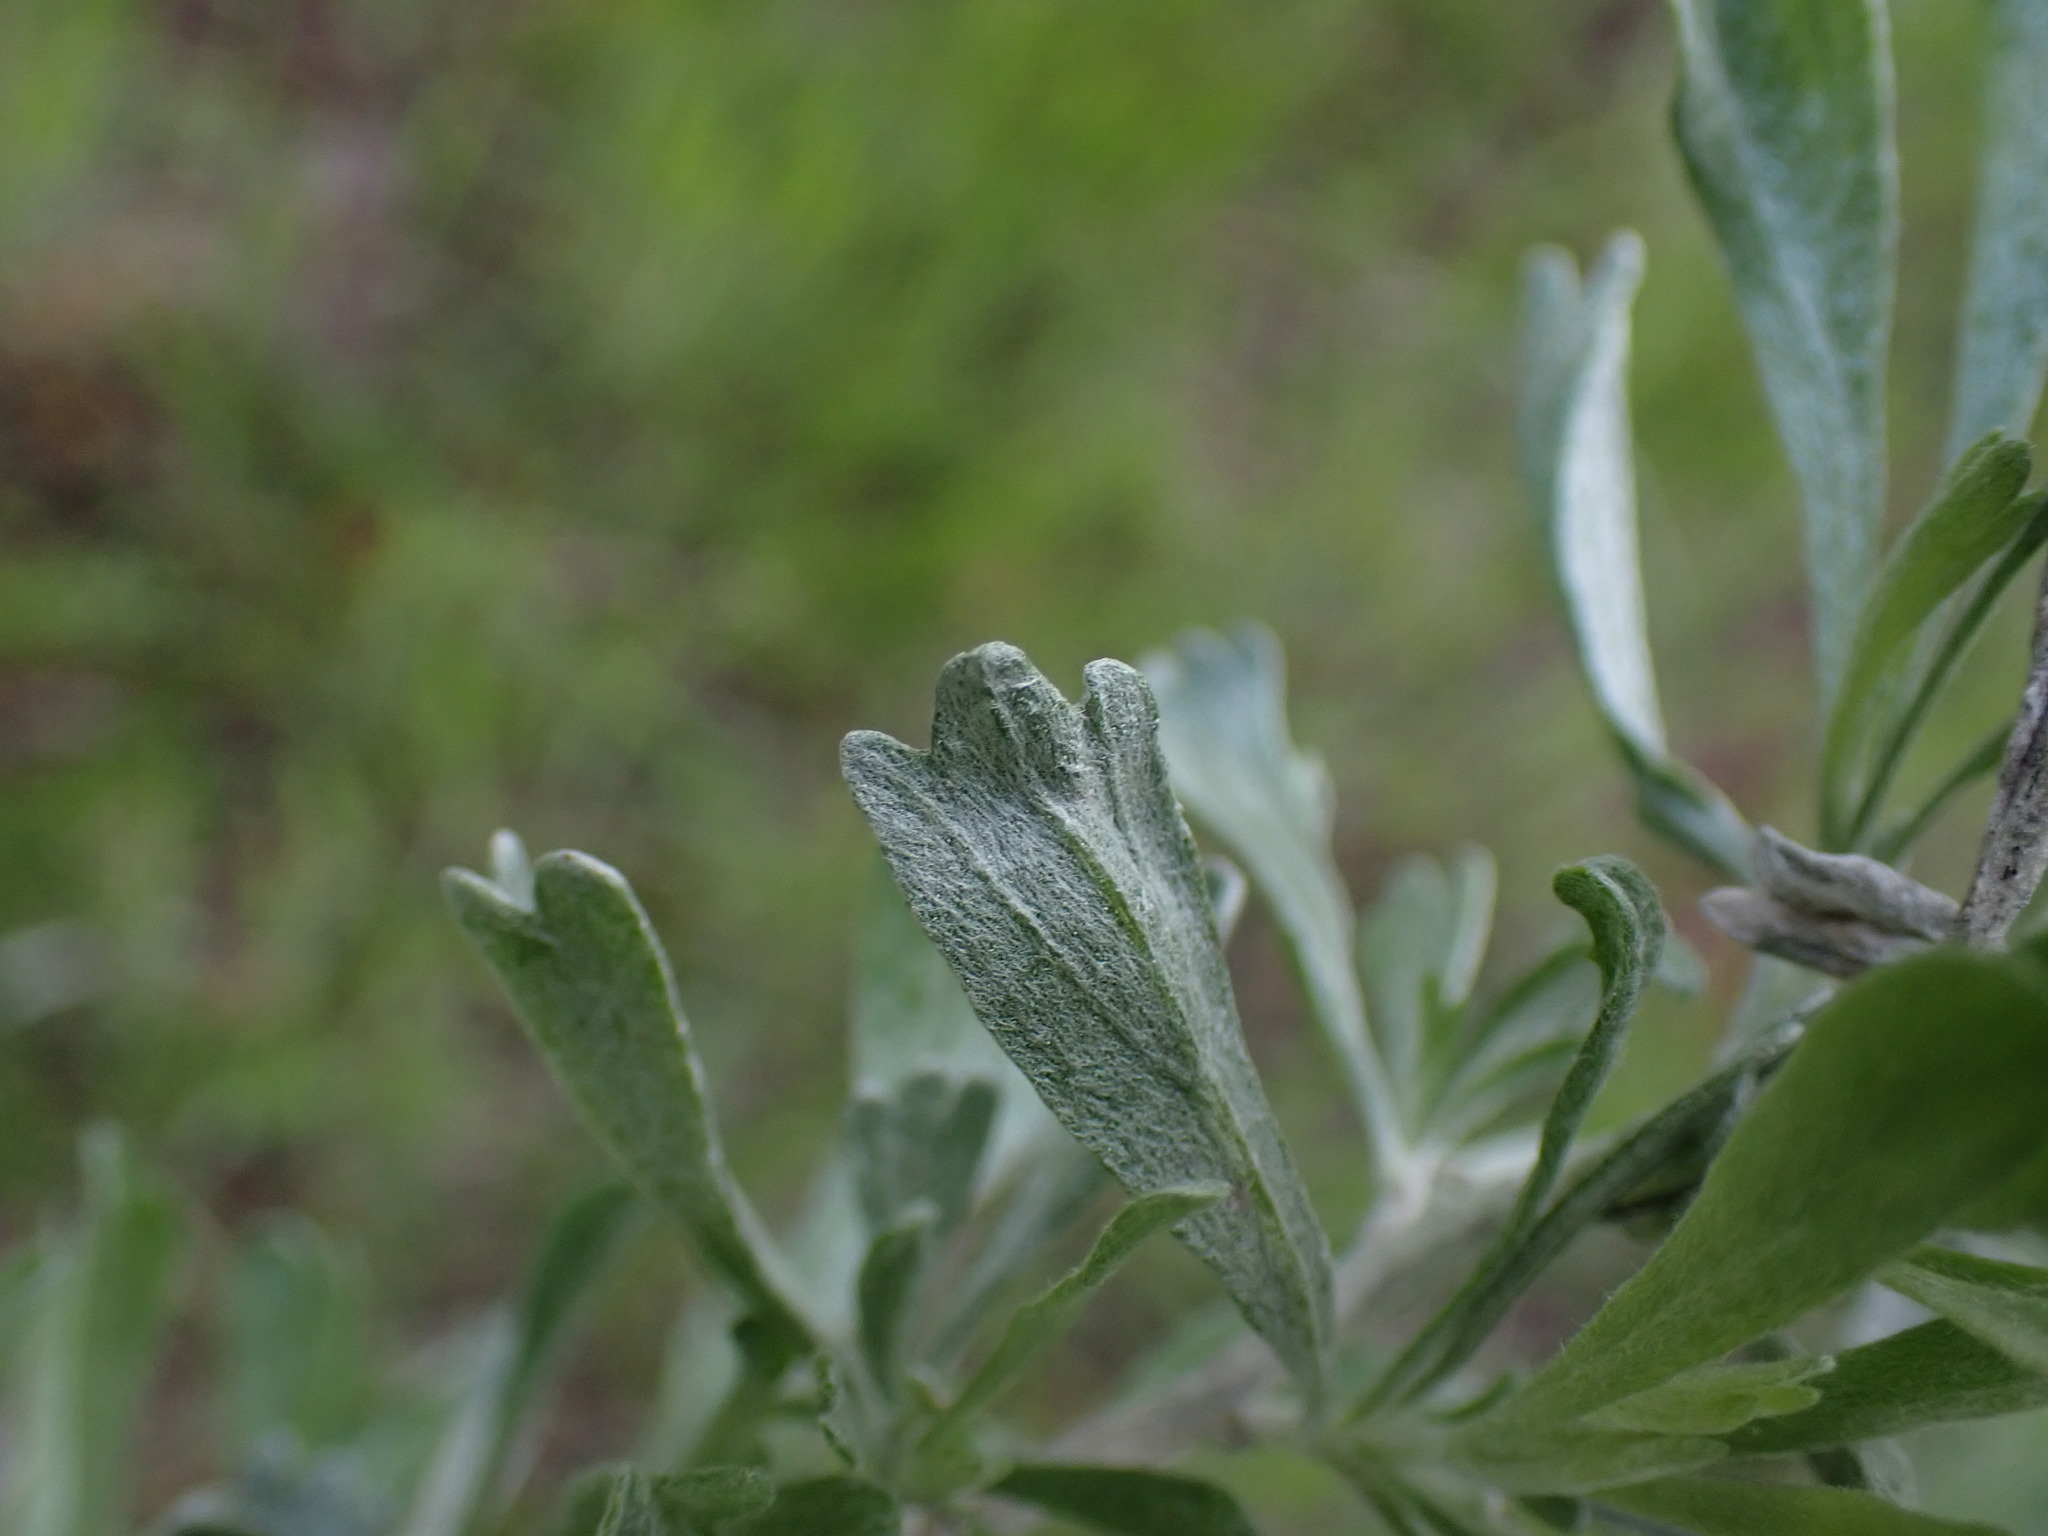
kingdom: Plantae
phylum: Tracheophyta
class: Magnoliopsida
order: Asterales
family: Asteraceae
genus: Artemisia
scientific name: Artemisia tridentata
